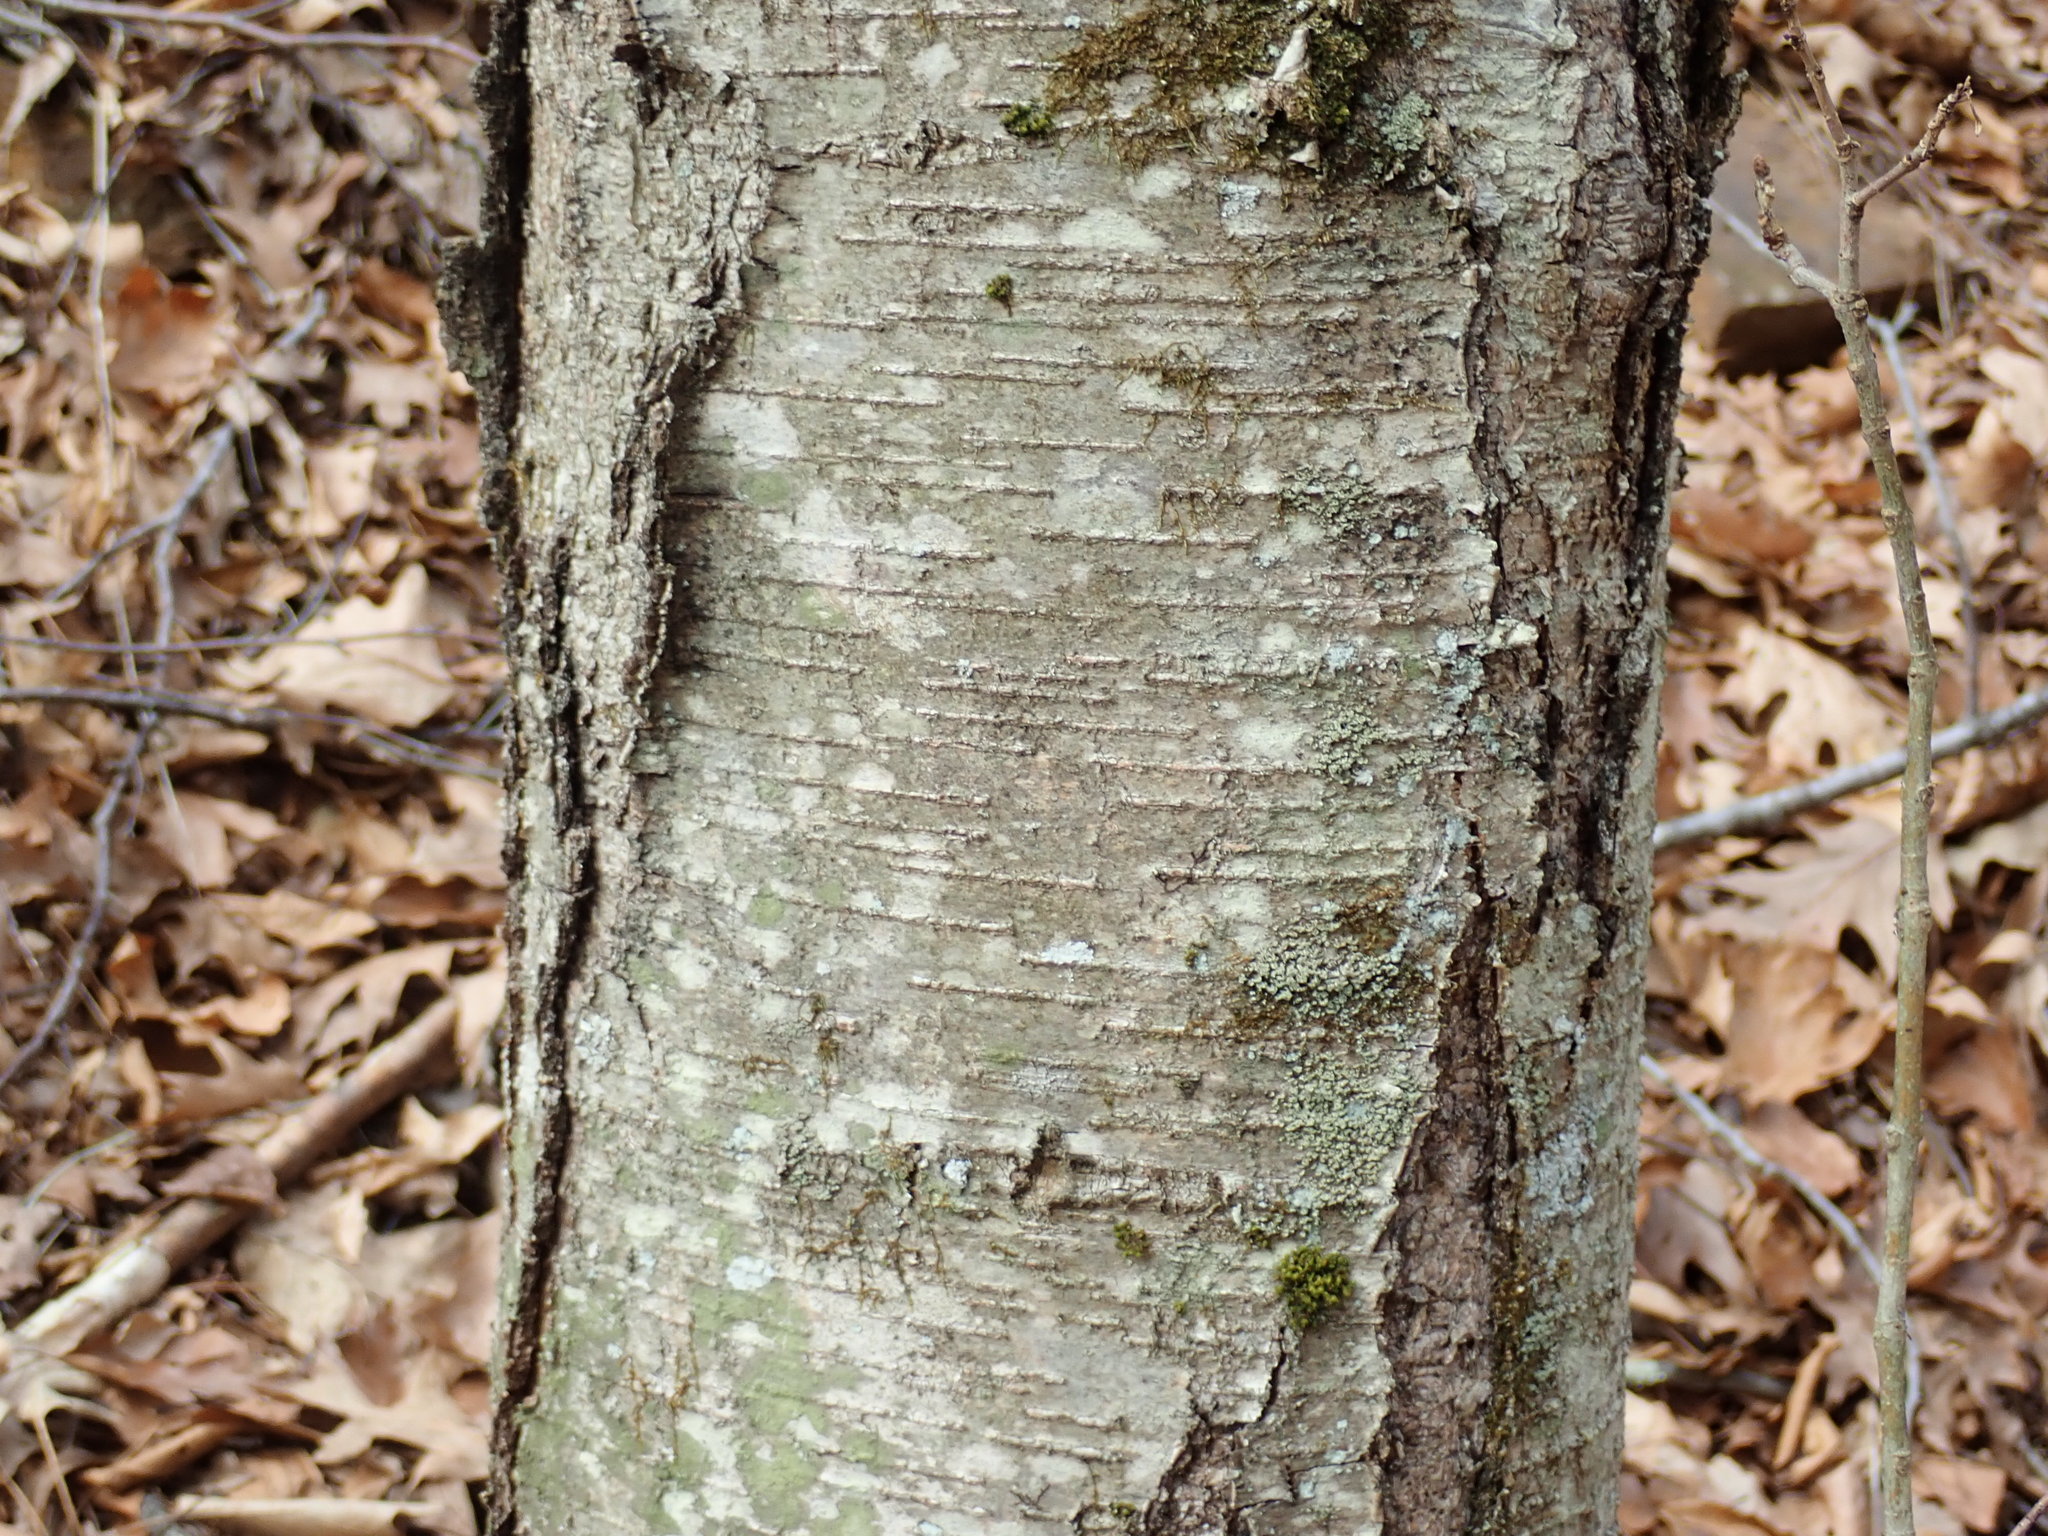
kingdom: Plantae
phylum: Tracheophyta
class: Magnoliopsida
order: Fagales
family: Betulaceae
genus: Betula
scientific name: Betula lenta
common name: Black birch
